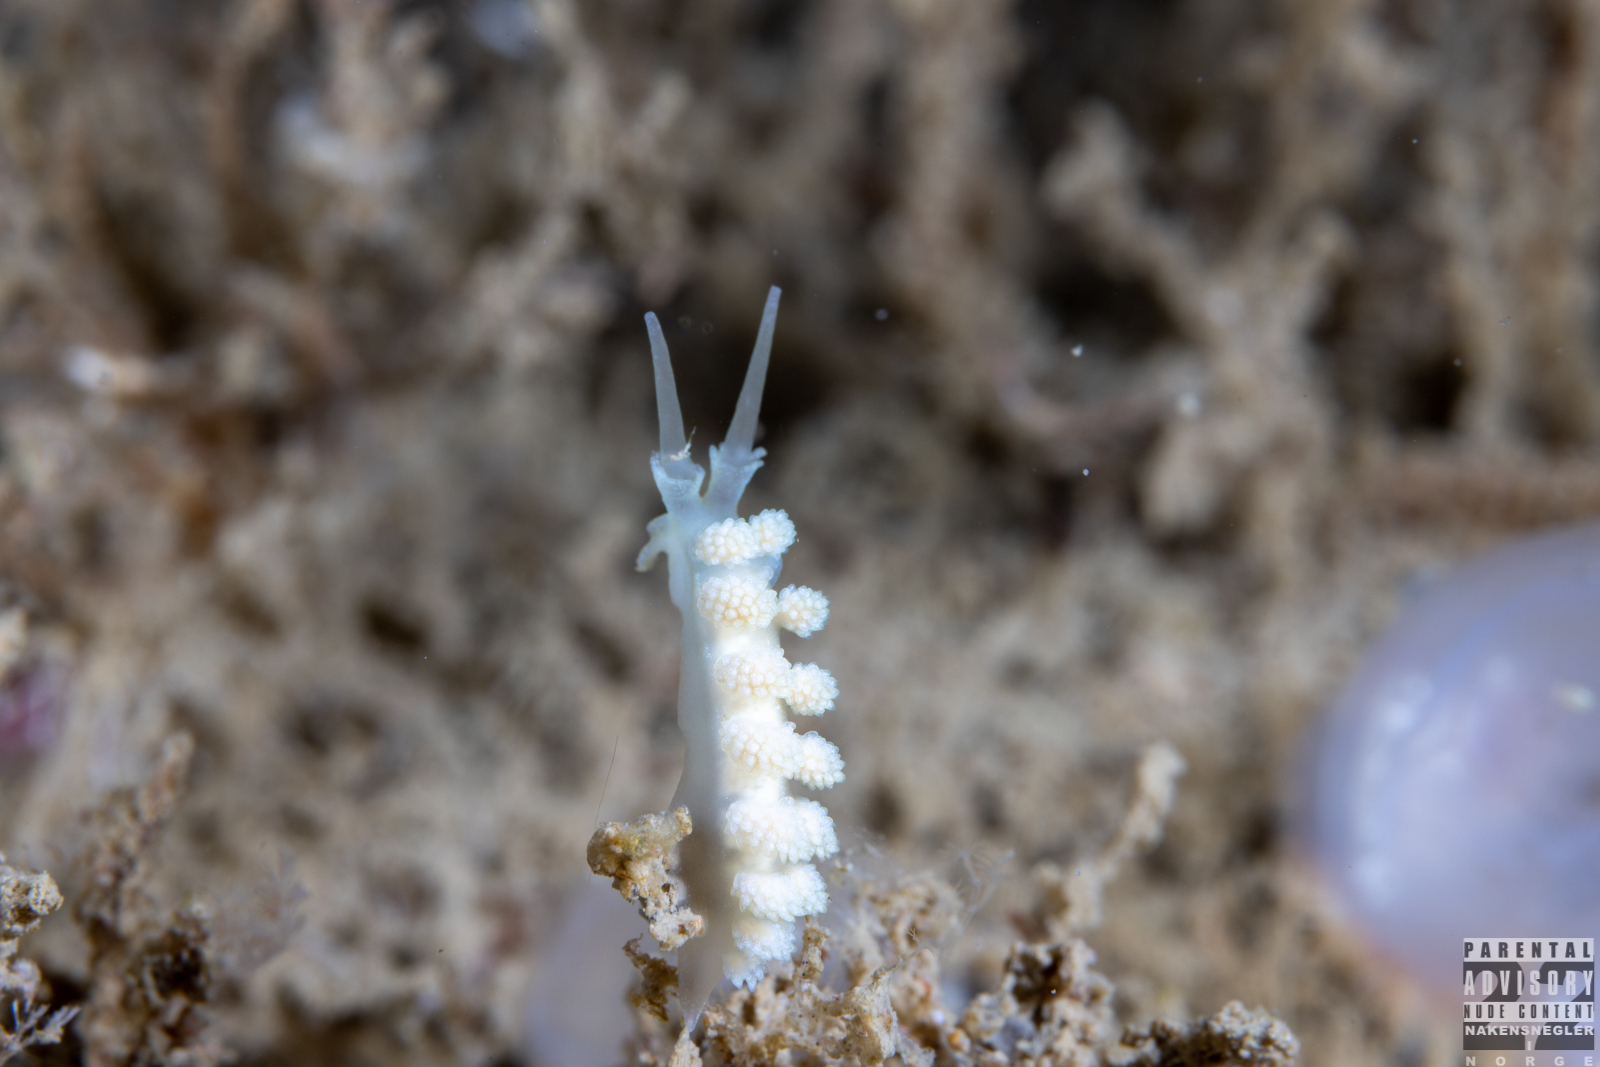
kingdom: Animalia
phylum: Mollusca
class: Gastropoda
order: Nudibranchia
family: Dotidae
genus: Doto
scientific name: Doto fragilis
